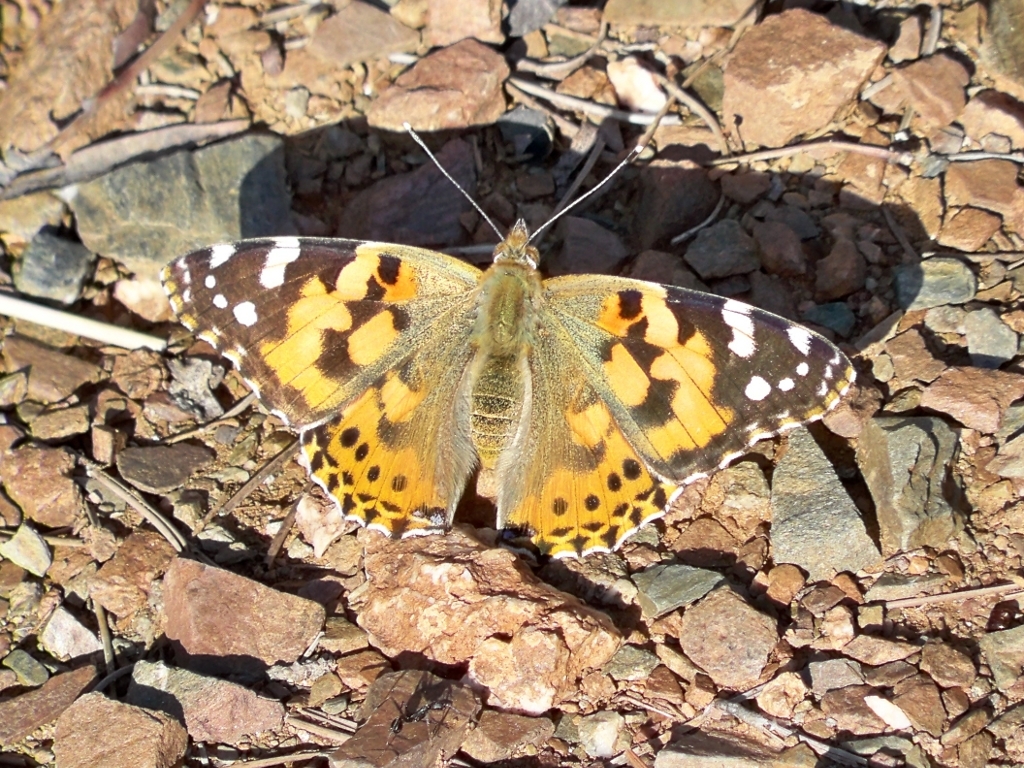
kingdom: Animalia
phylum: Arthropoda
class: Insecta
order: Lepidoptera
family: Nymphalidae
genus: Vanessa
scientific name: Vanessa cardui
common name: Painted lady
